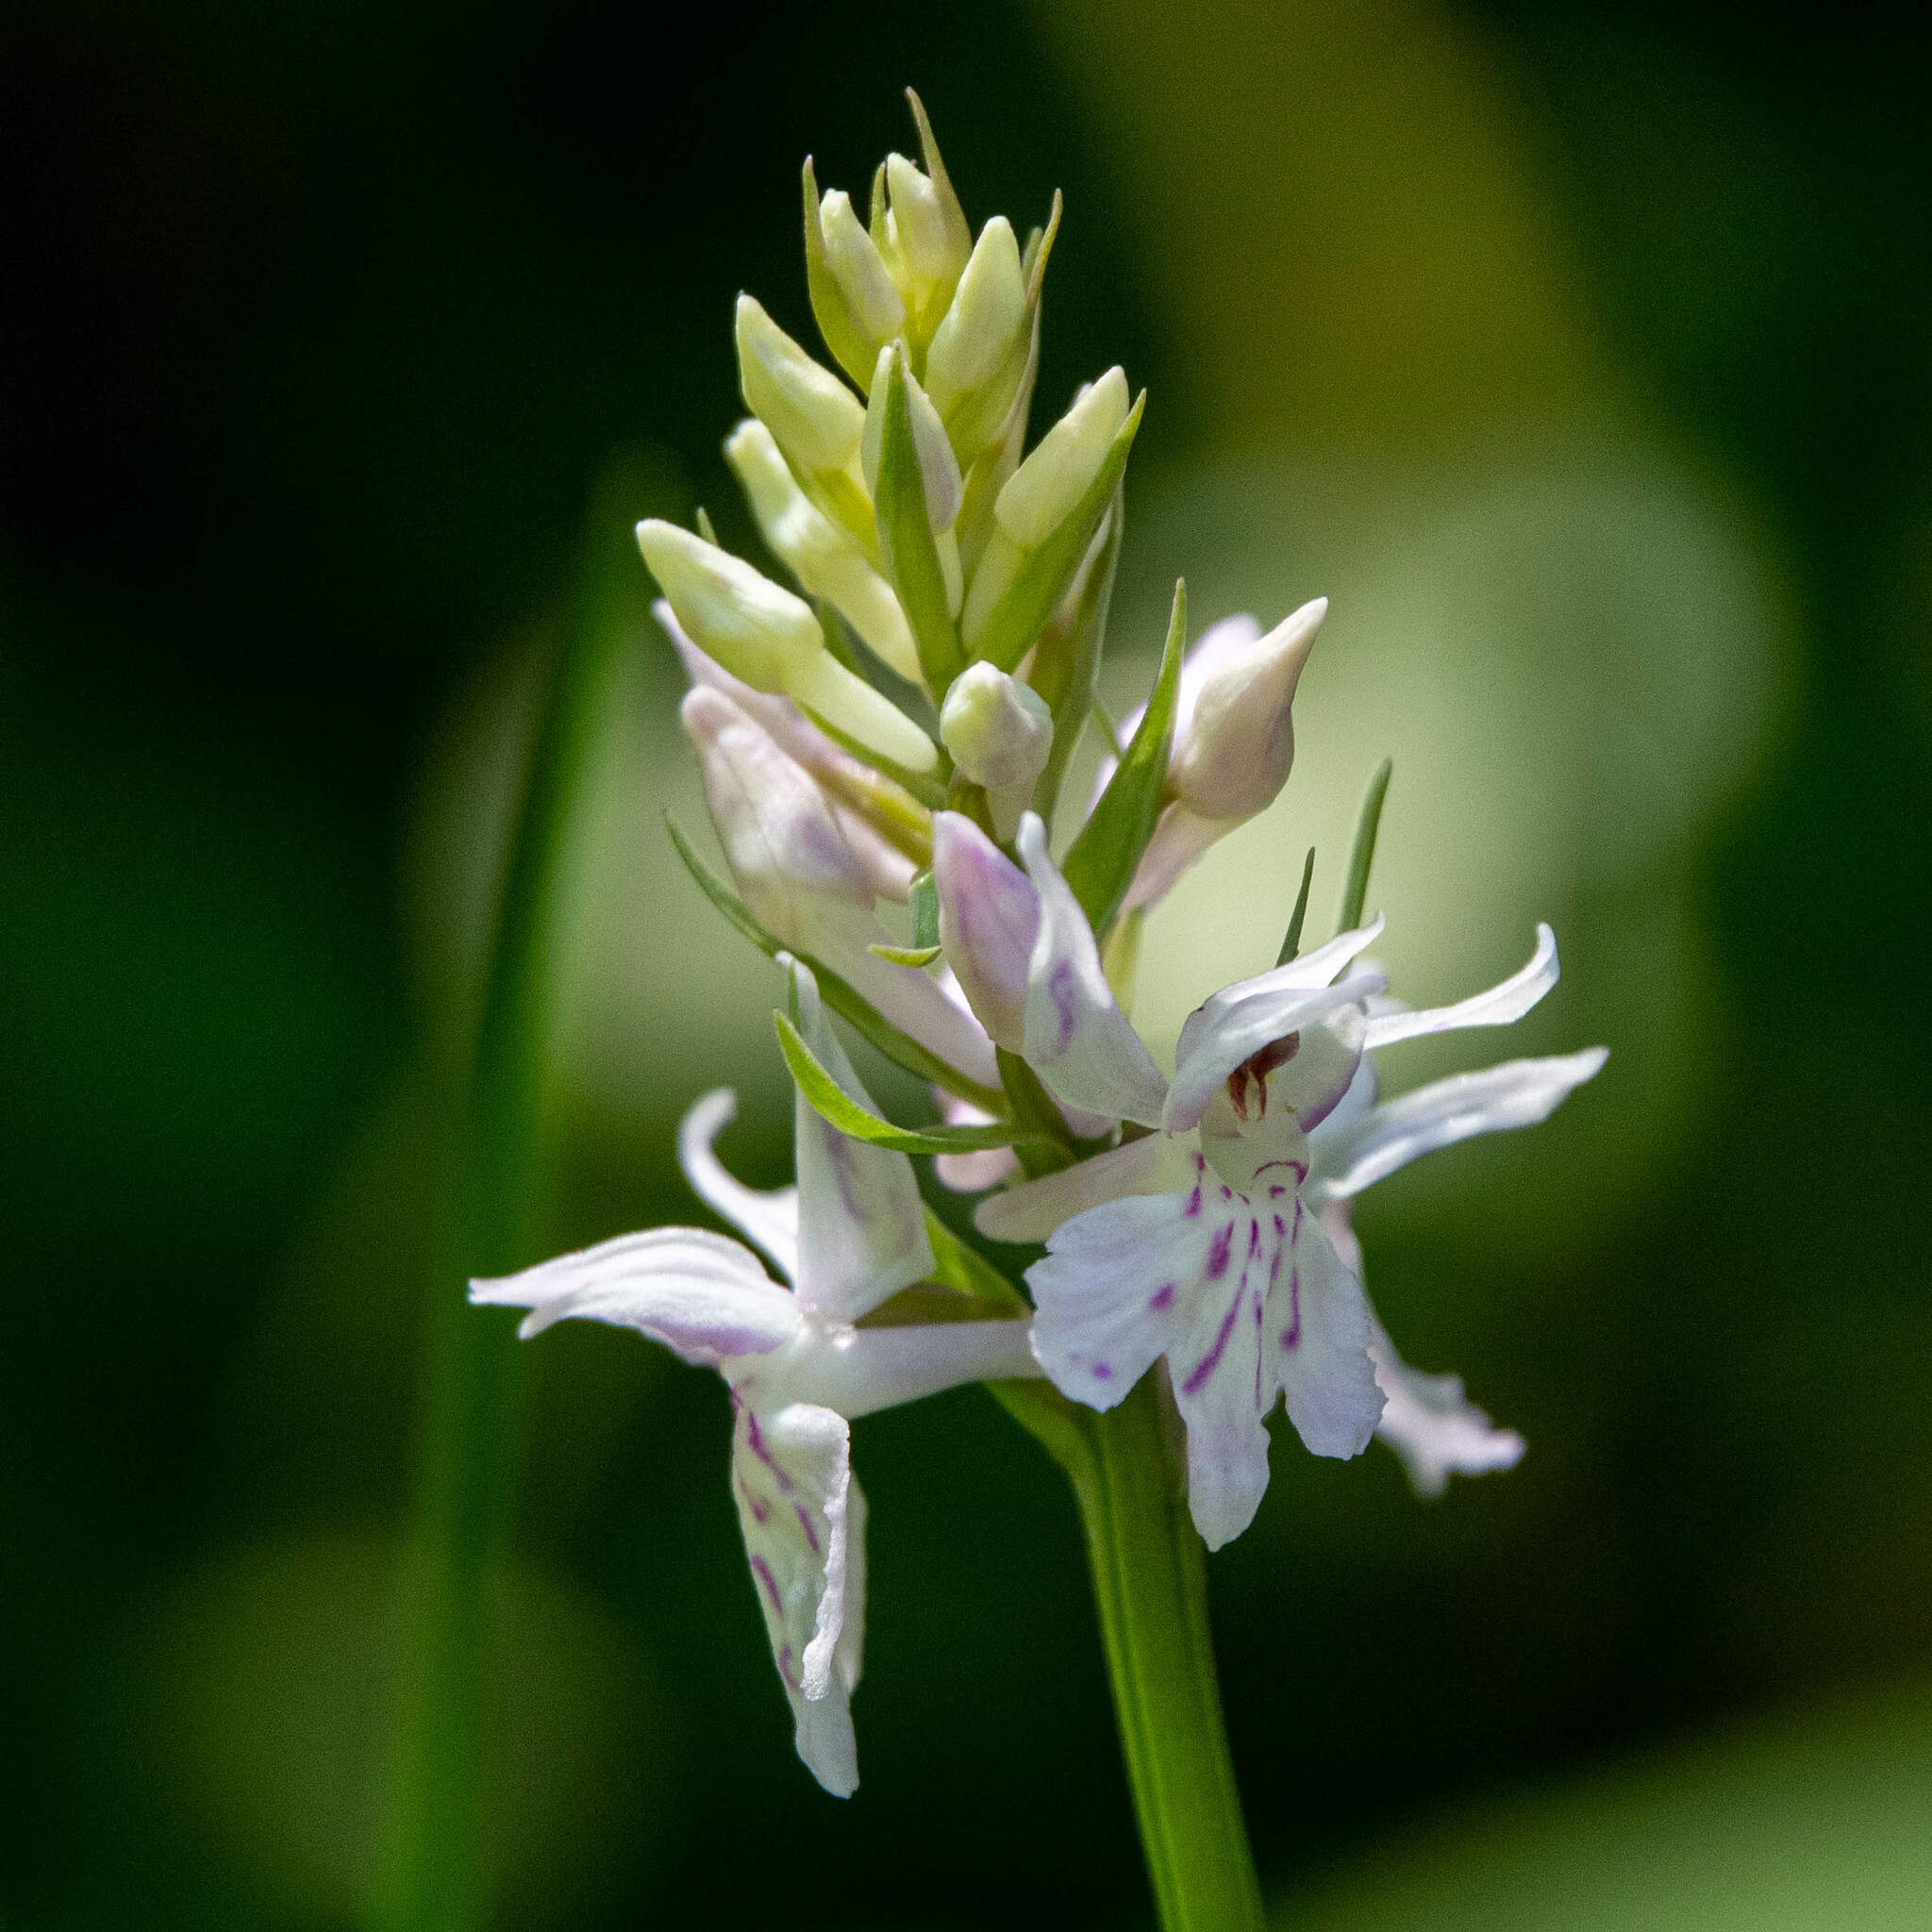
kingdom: Plantae
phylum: Tracheophyta
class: Liliopsida
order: Asparagales
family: Orchidaceae
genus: Dactylorhiza
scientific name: Dactylorhiza maculata
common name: Heath spotted-orchid
